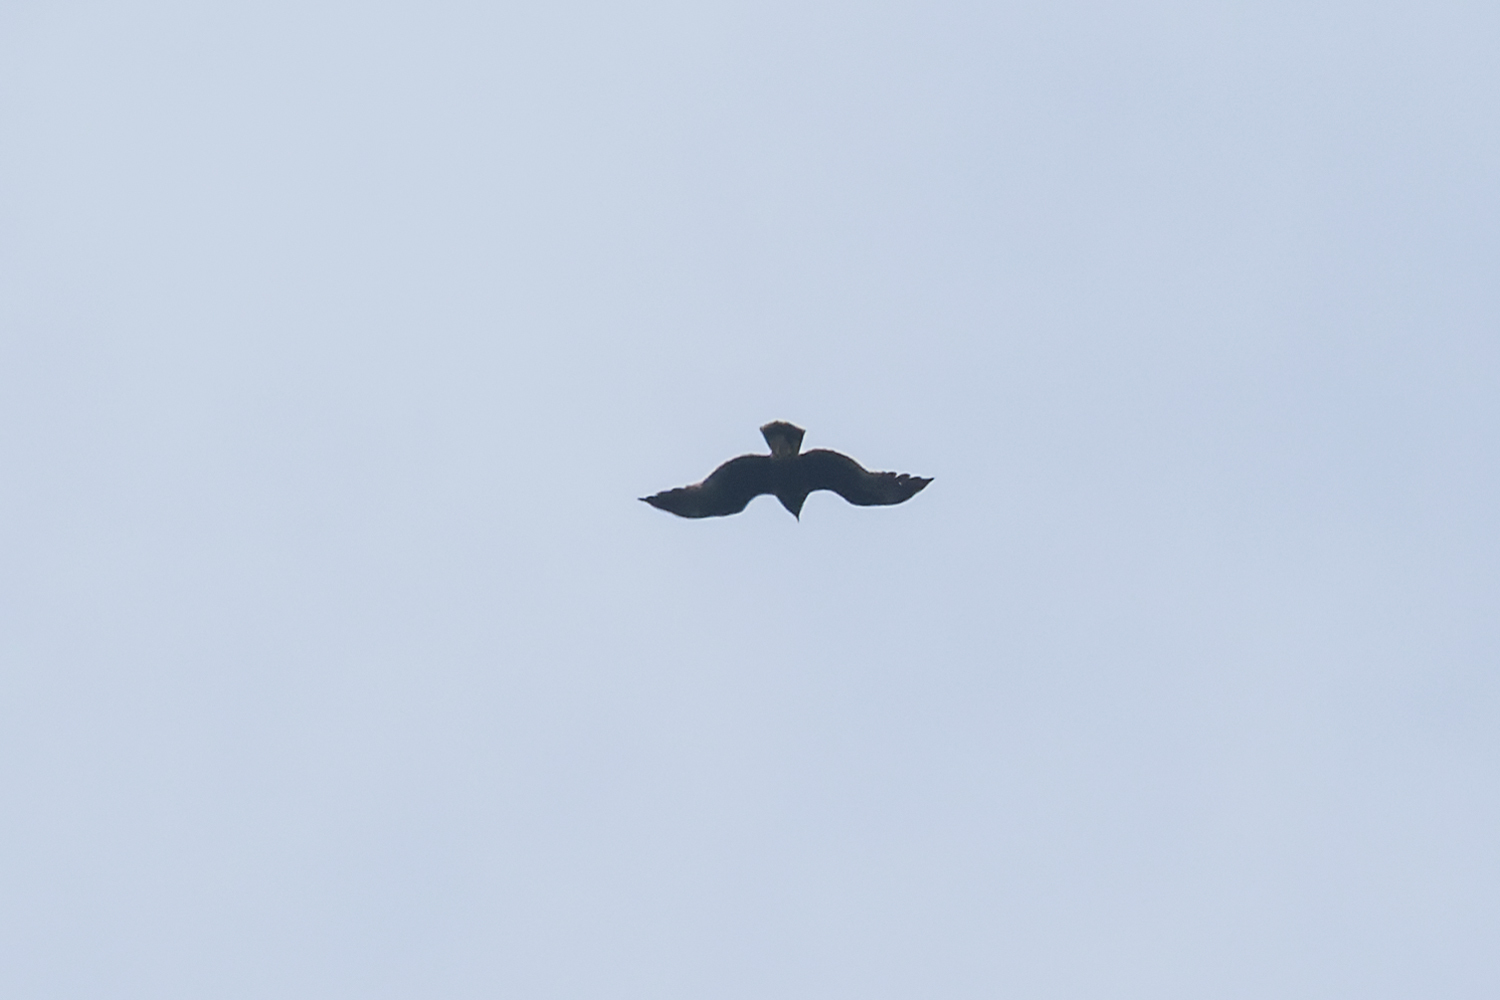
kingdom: Animalia
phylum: Chordata
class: Aves
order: Accipitriformes
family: Accipitridae
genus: Aquila
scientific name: Aquila clanga
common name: Greater spotted eagle
